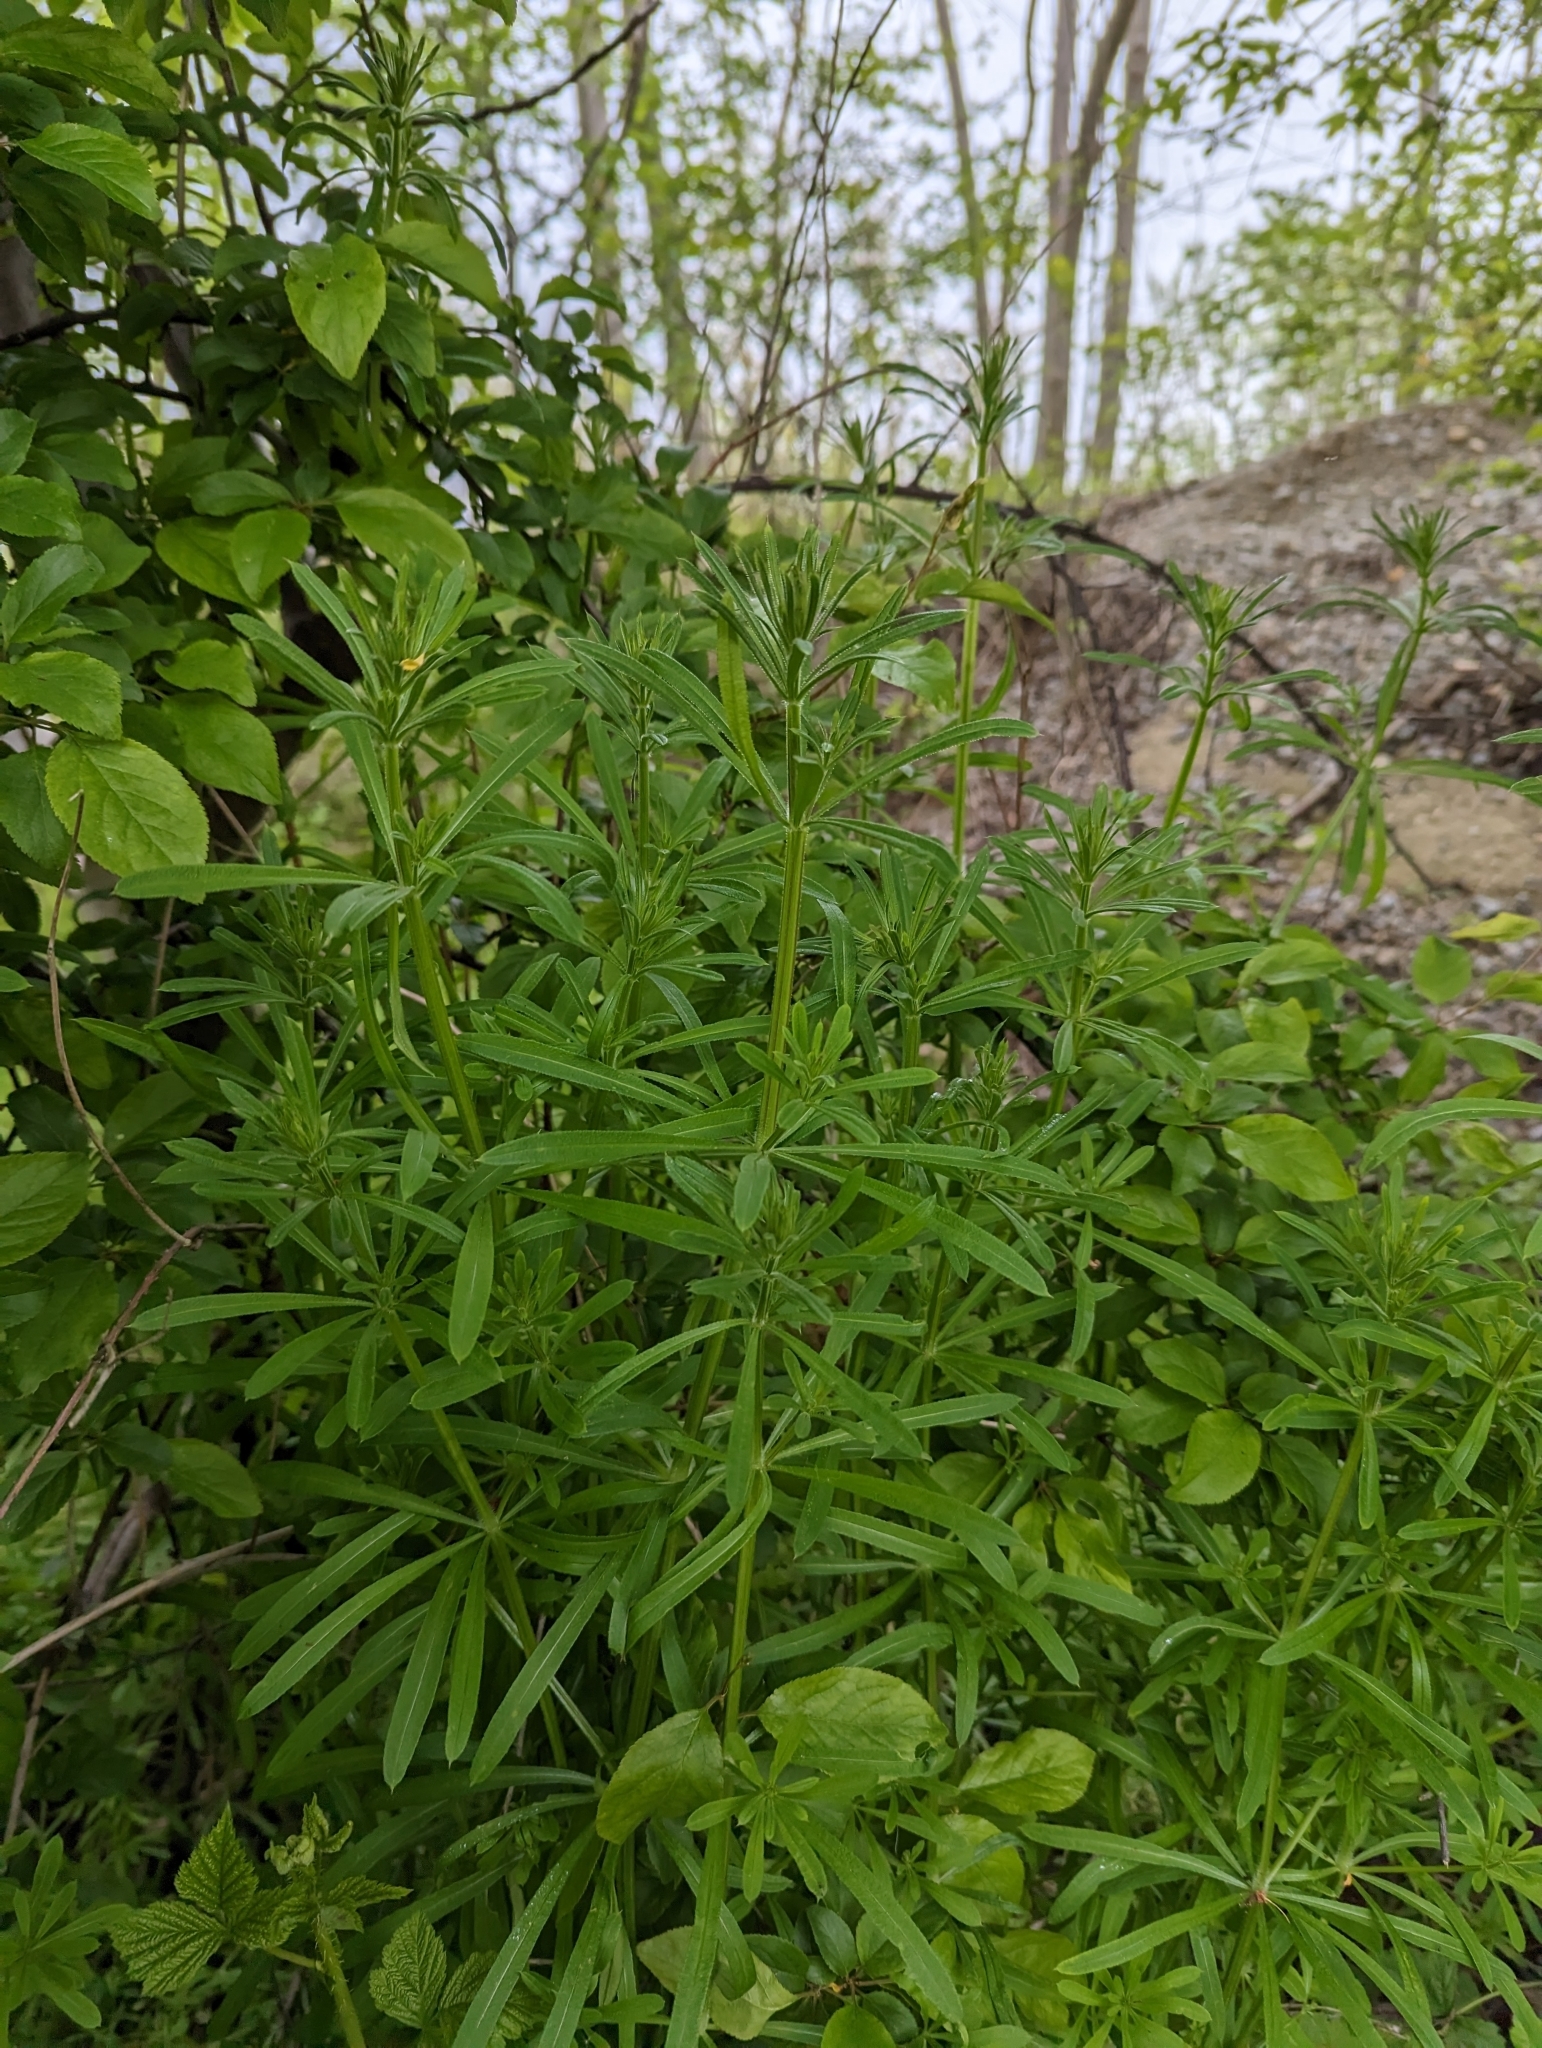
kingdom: Plantae
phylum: Tracheophyta
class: Magnoliopsida
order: Gentianales
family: Rubiaceae
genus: Galium
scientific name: Galium aparine
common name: Cleavers
